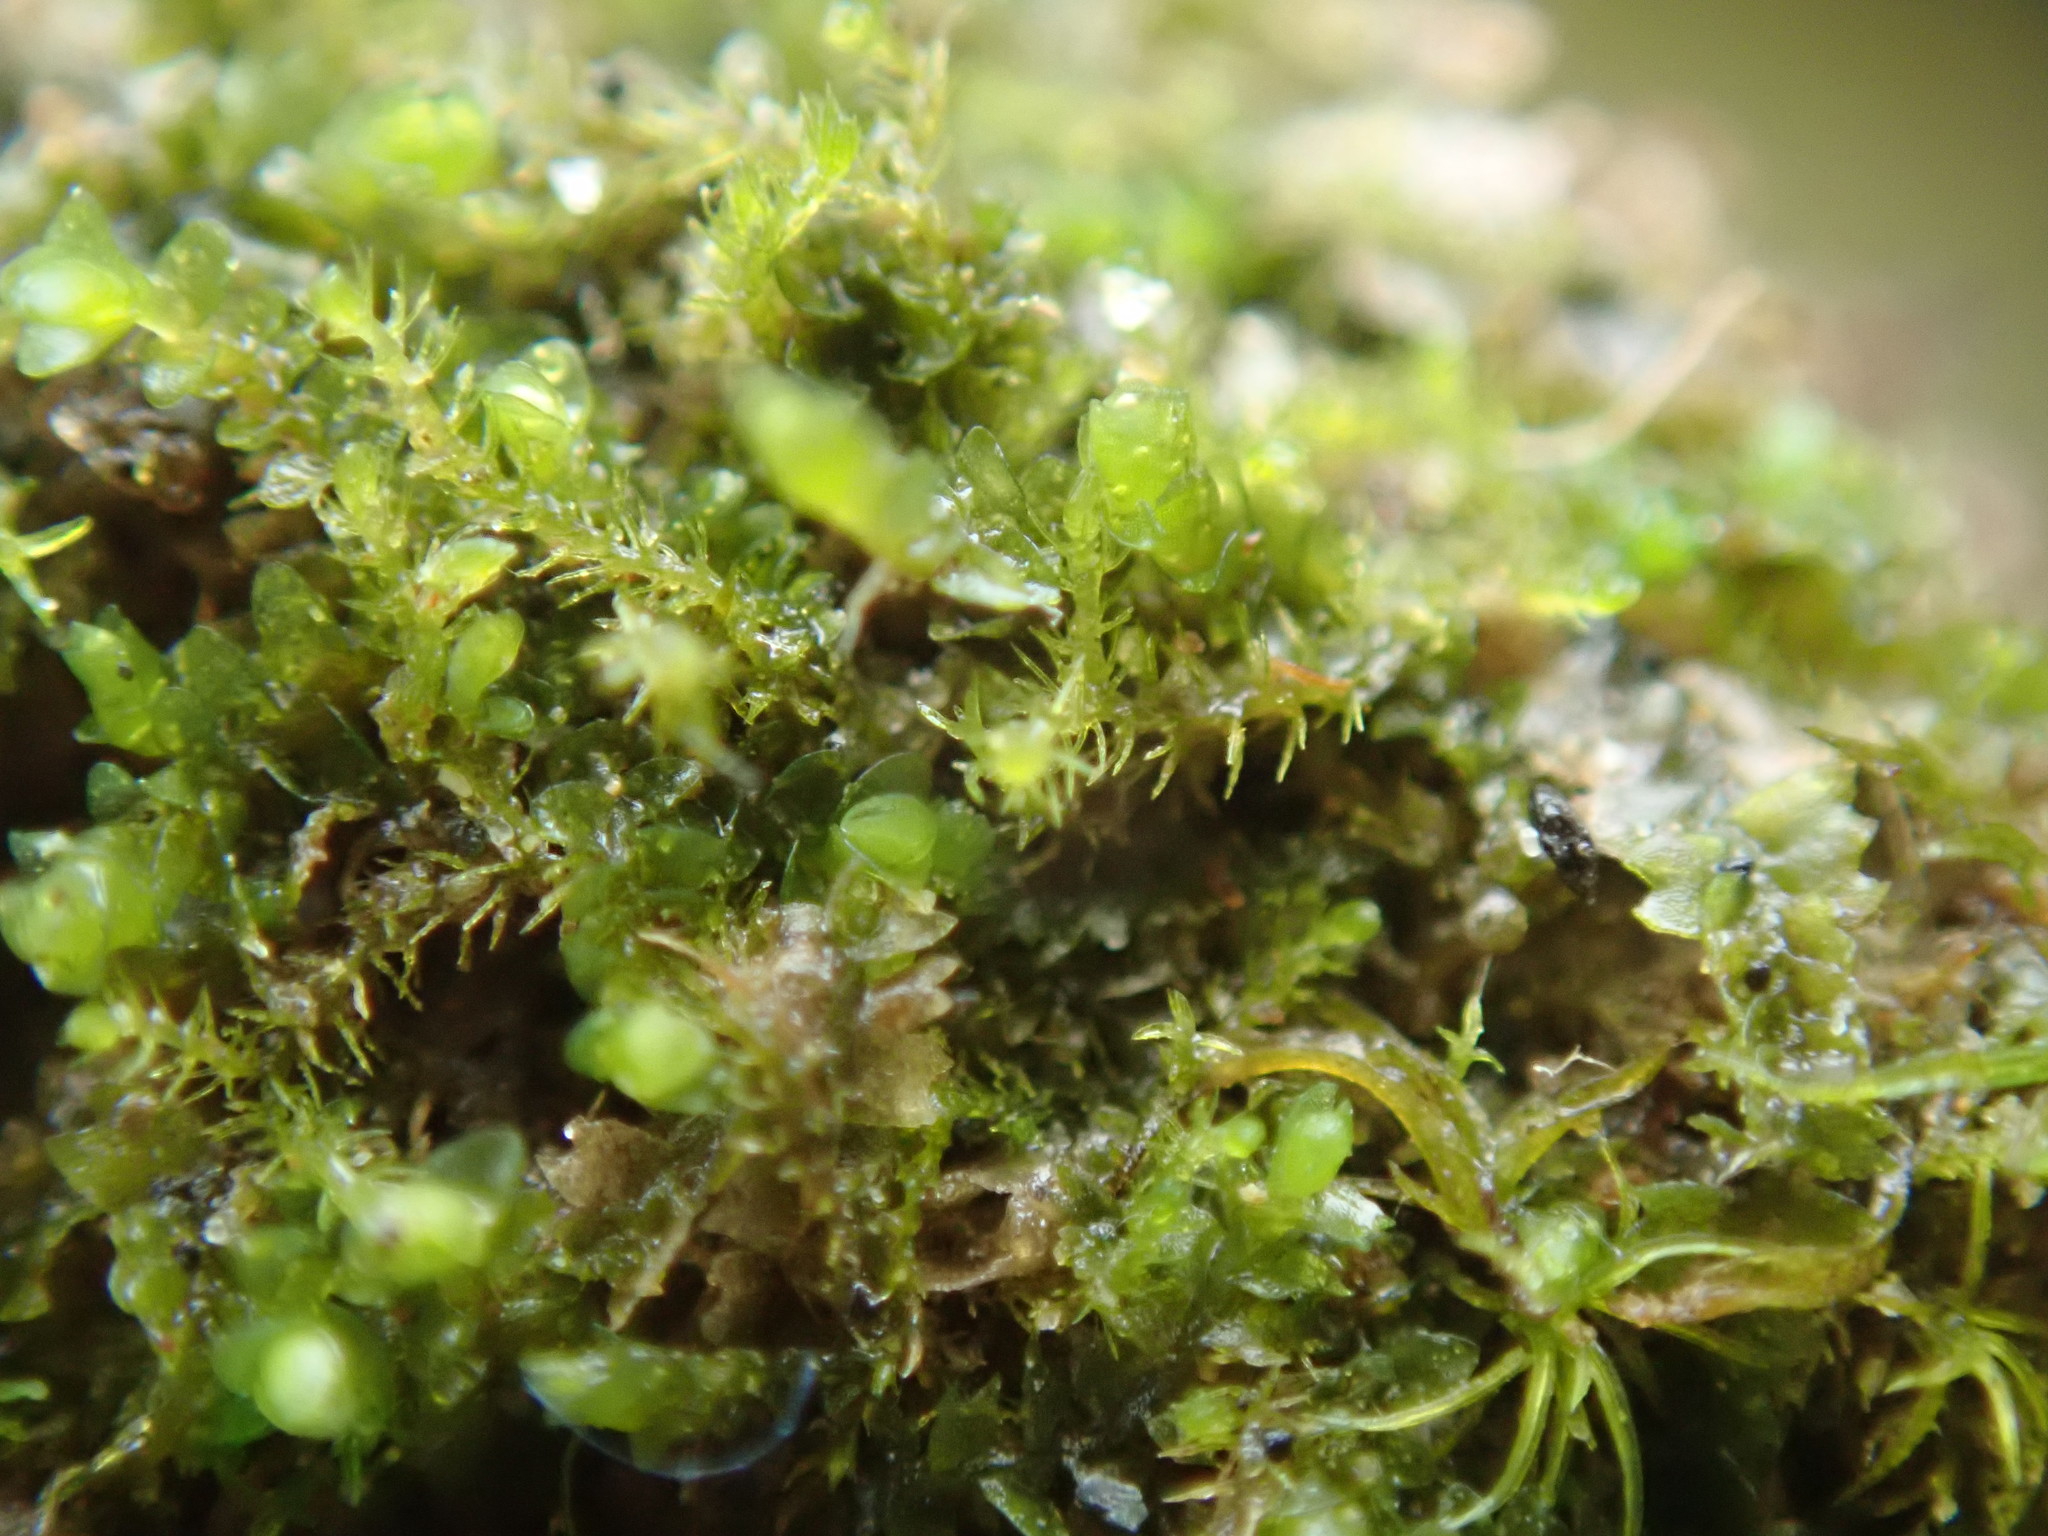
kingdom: Plantae
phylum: Marchantiophyta
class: Jungermanniopsida
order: Jungermanniales
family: Blepharostomataceae
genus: Blepharostoma
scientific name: Blepharostoma trichophyllum
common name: Hairy threadwort
